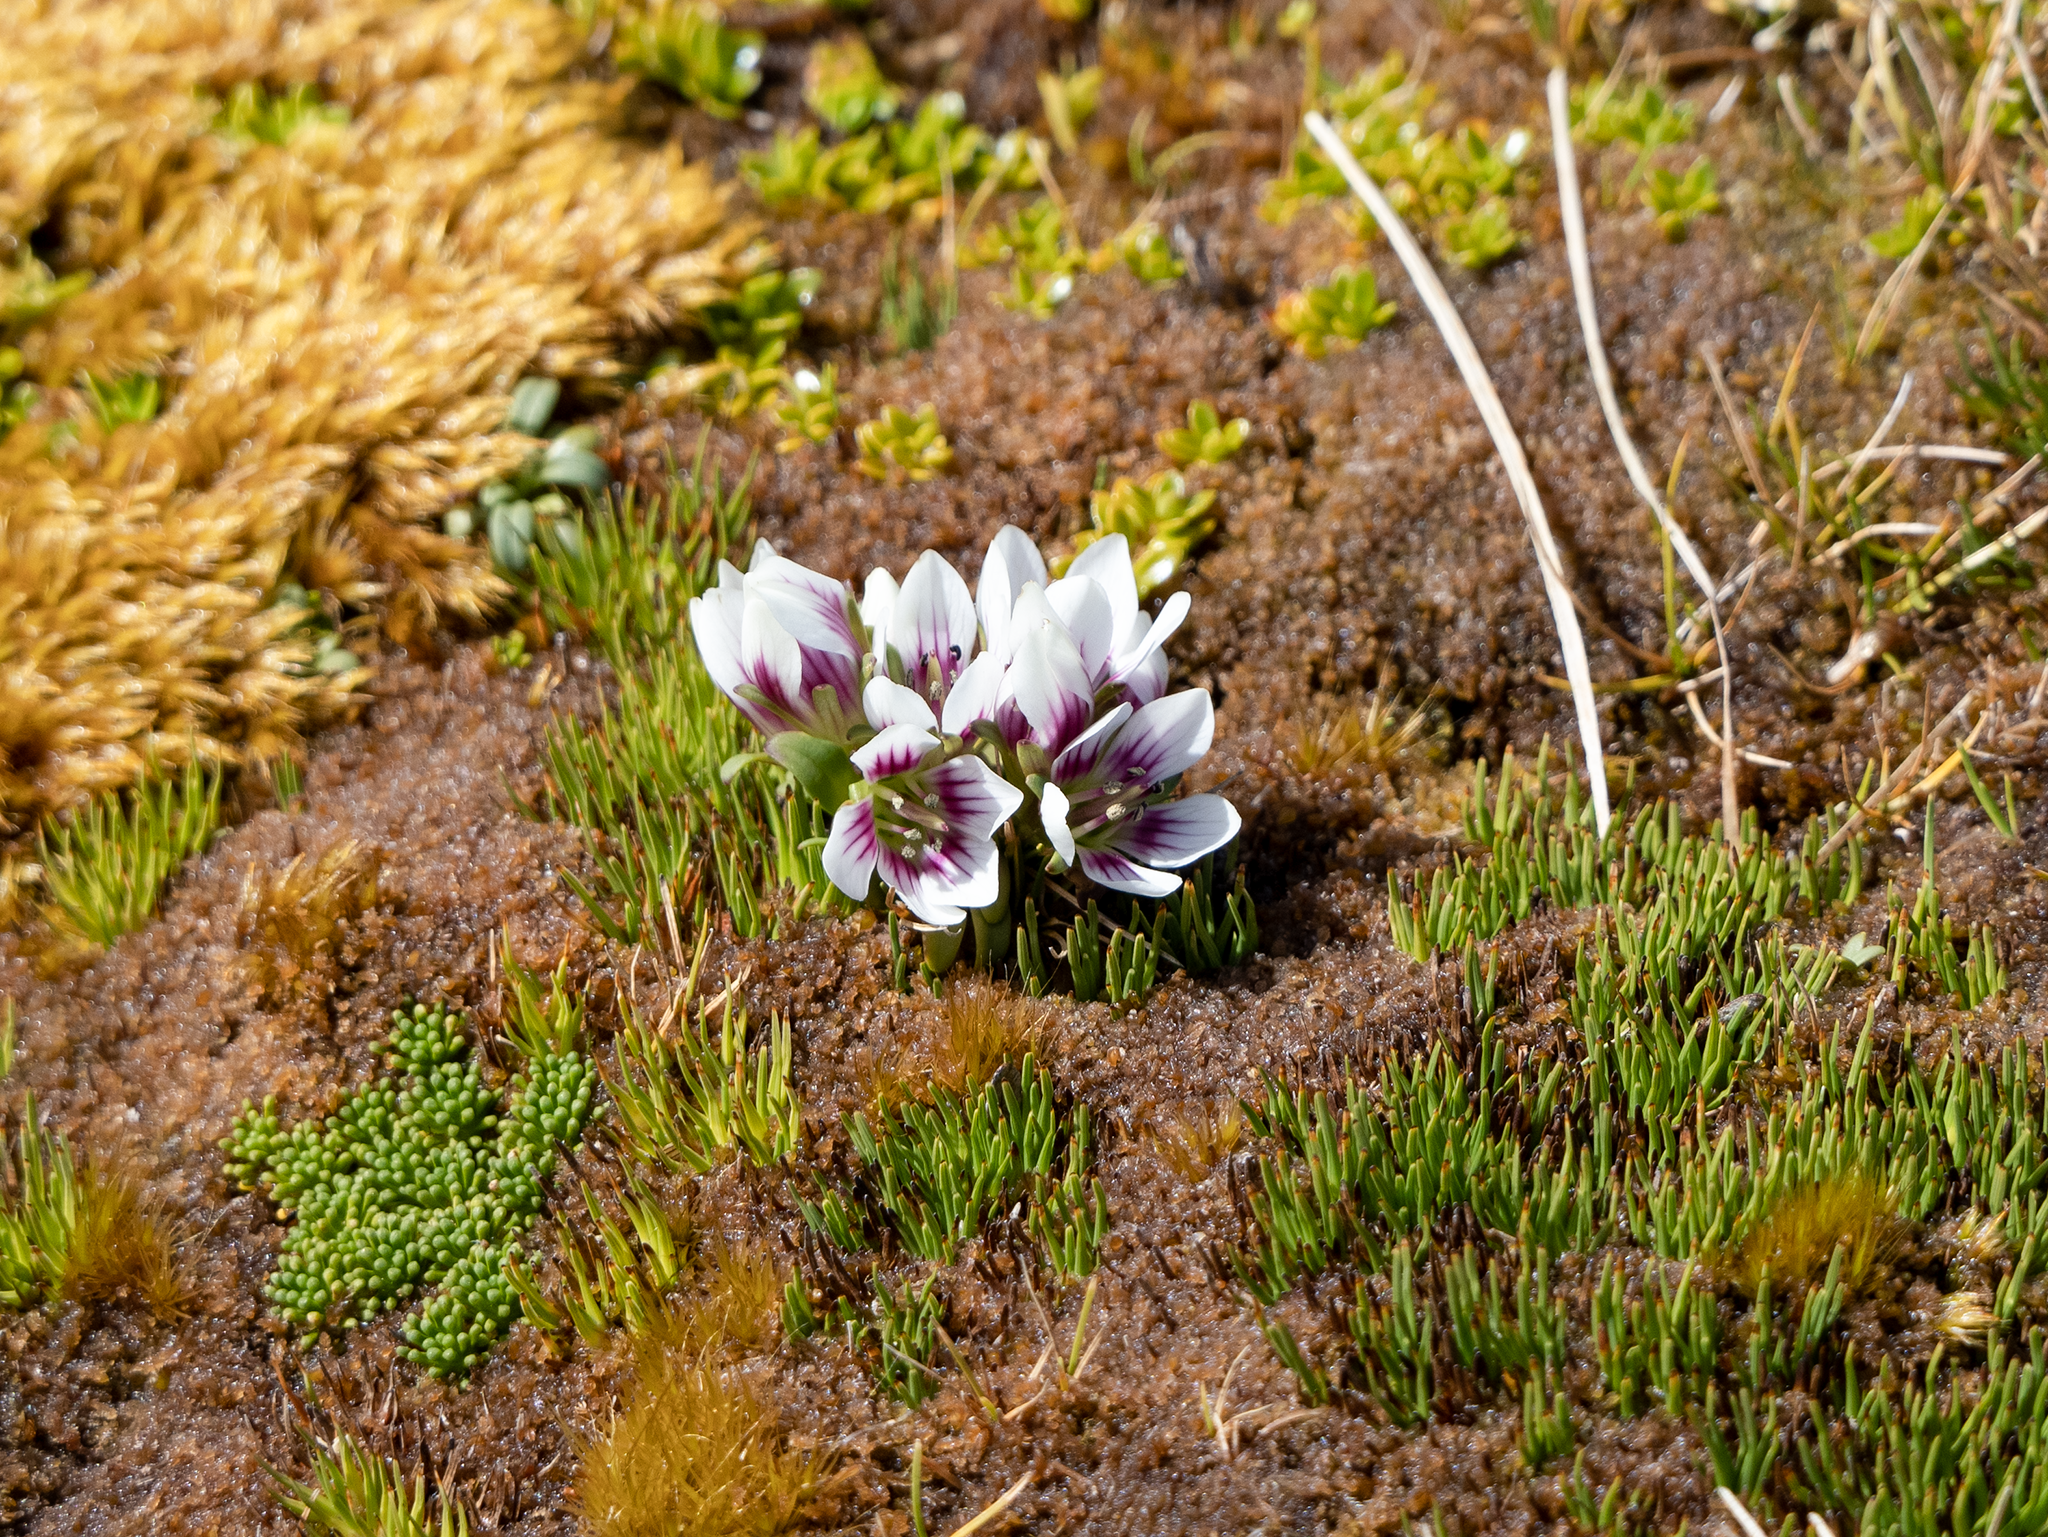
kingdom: Plantae
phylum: Tracheophyta
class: Magnoliopsida
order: Gentianales
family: Gentianaceae
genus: Gentianella
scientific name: Gentianella cerina
